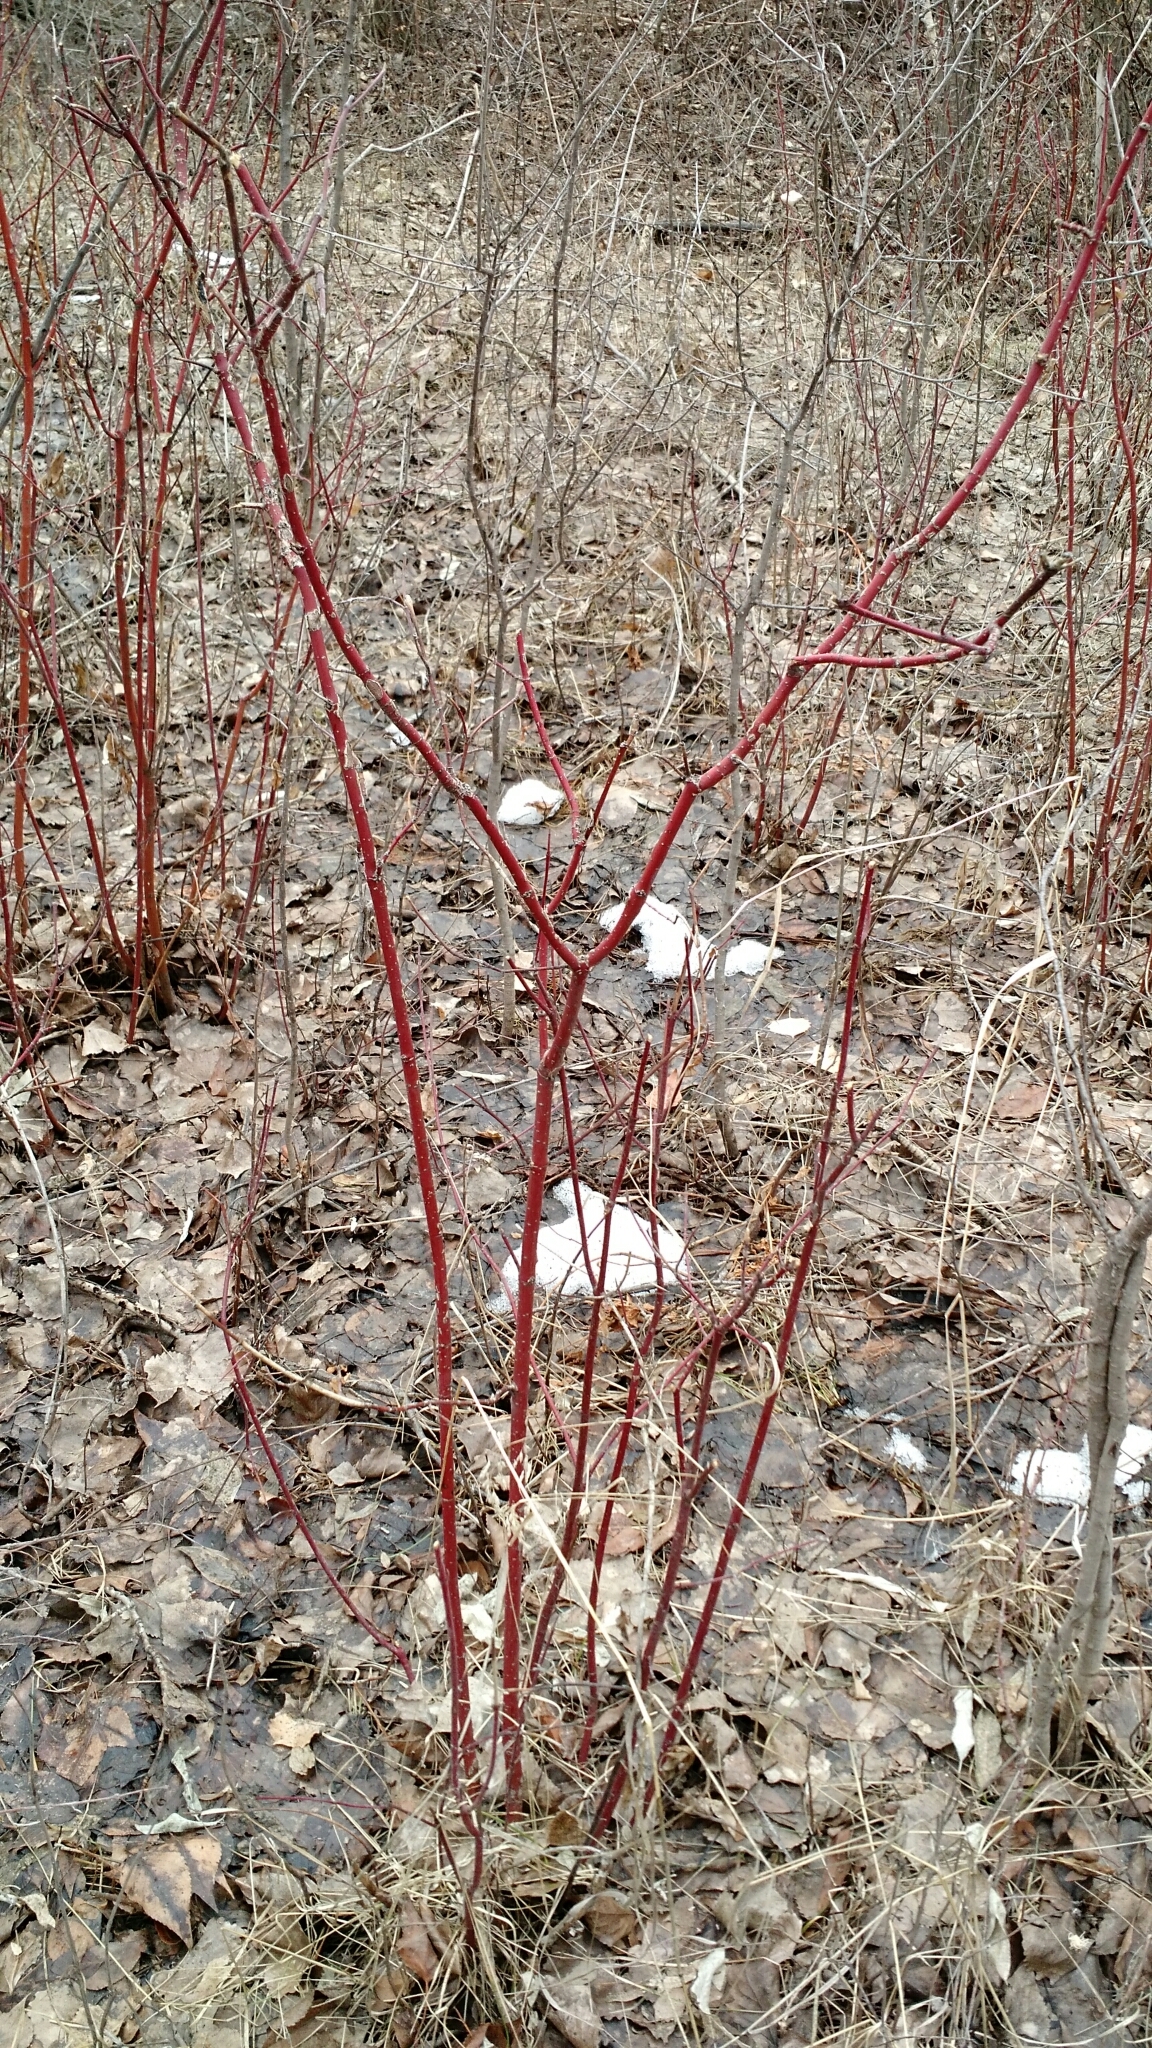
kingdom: Plantae
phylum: Tracheophyta
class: Magnoliopsida
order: Cornales
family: Cornaceae
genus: Cornus
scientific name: Cornus sericea
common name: Red-osier dogwood
